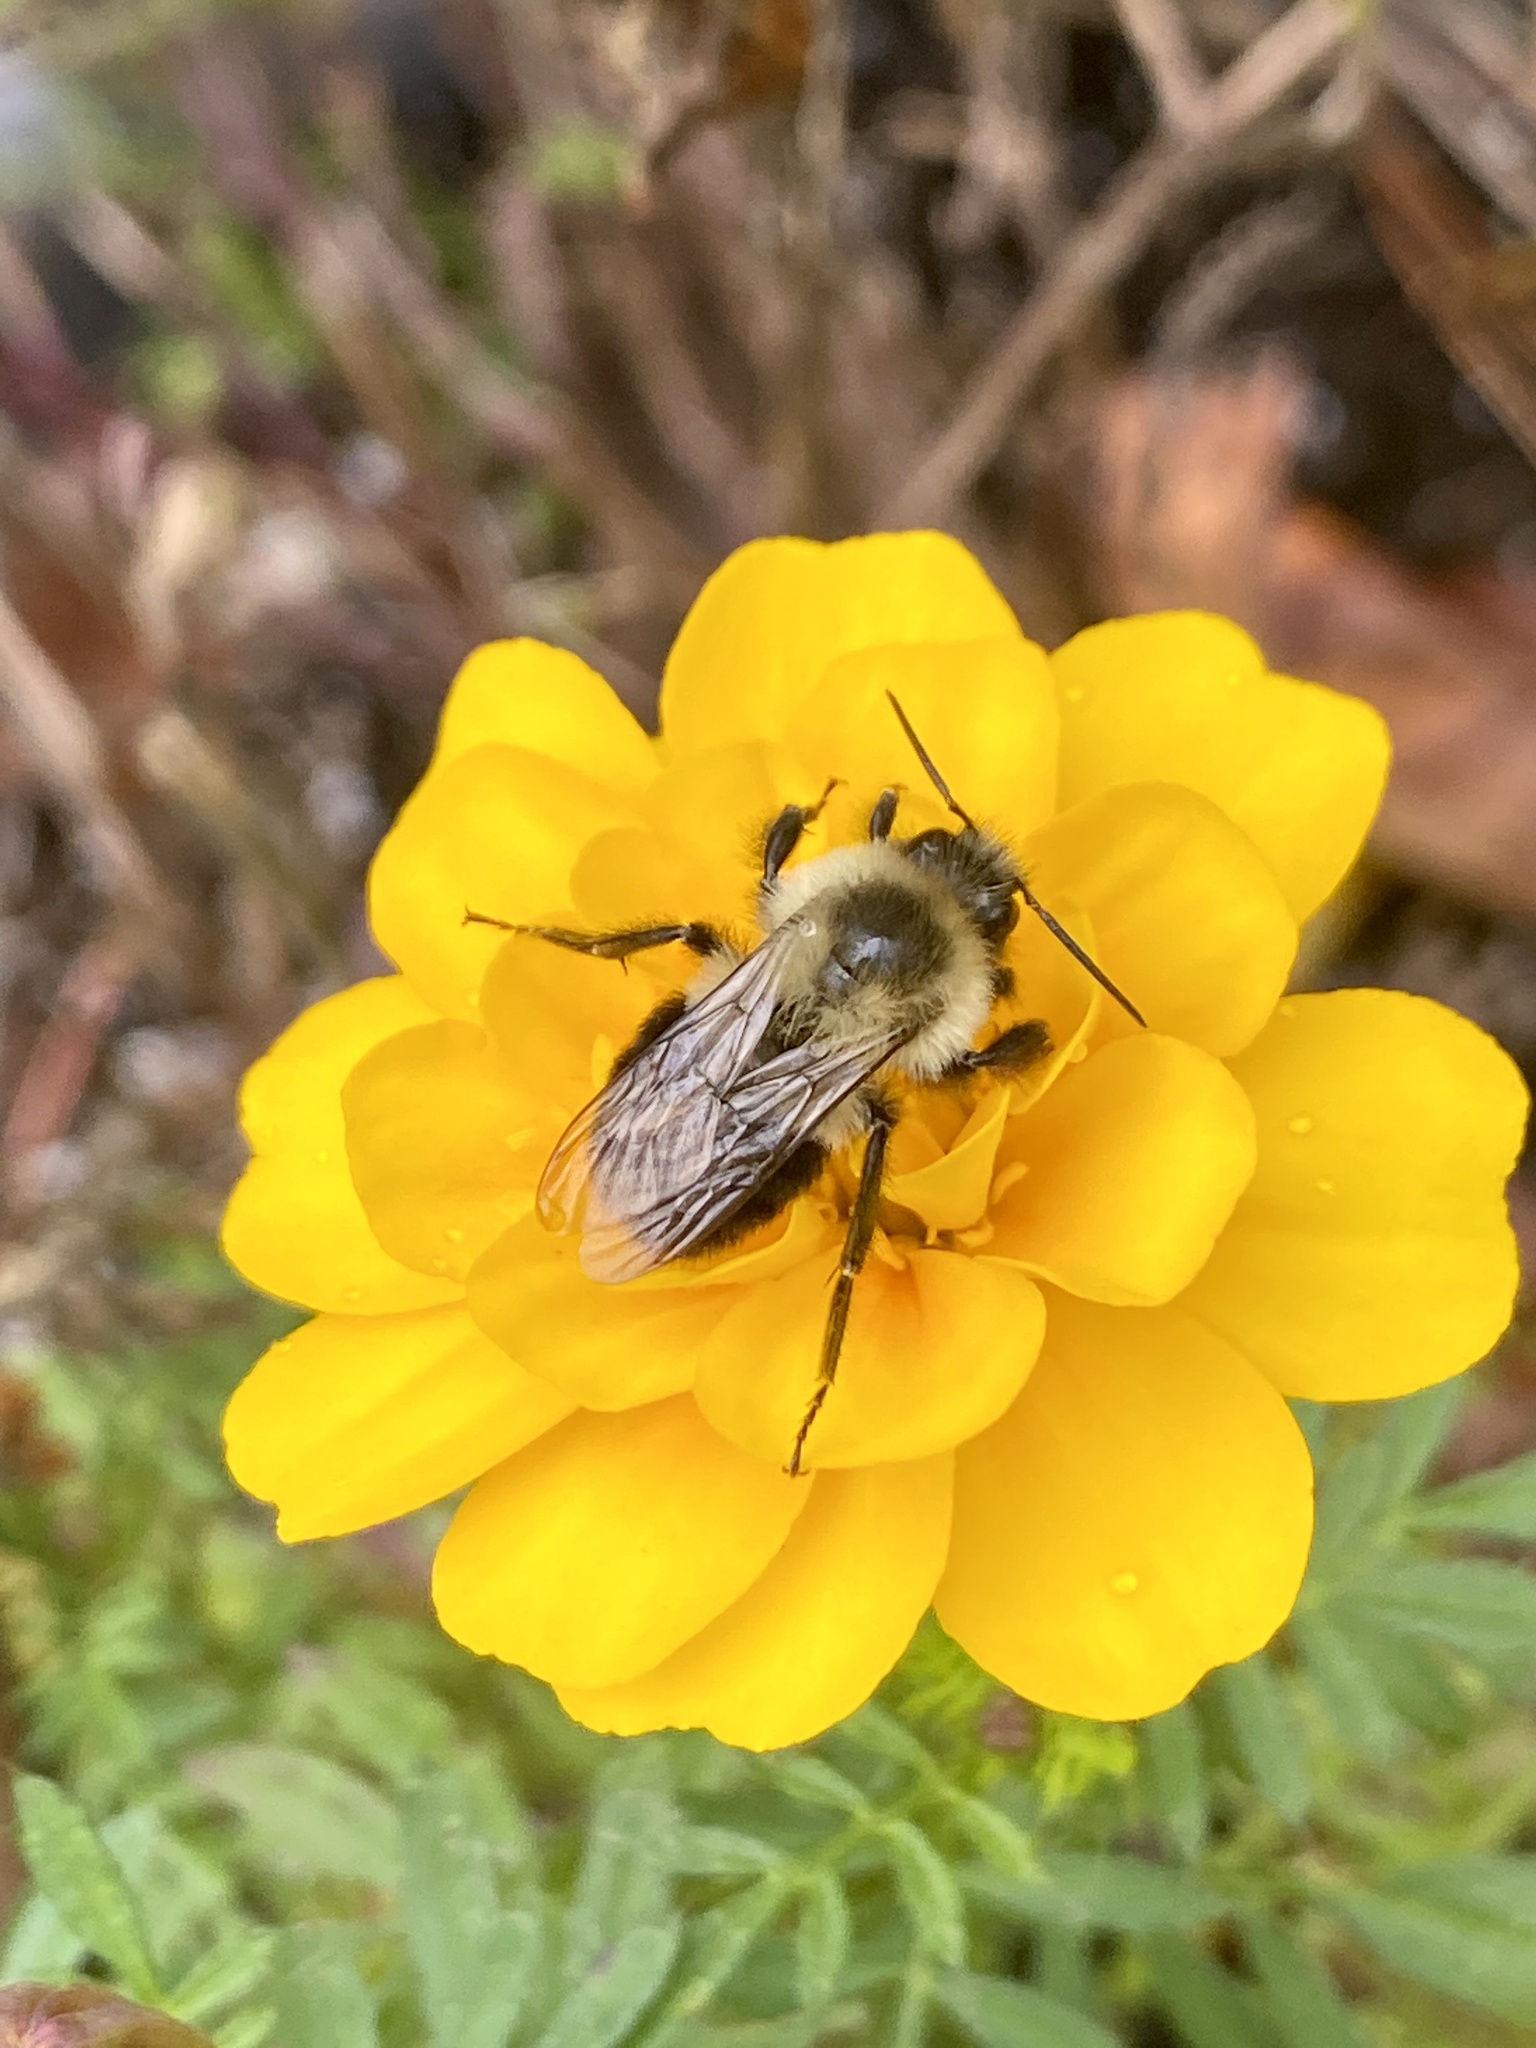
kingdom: Animalia
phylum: Arthropoda
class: Insecta
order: Hymenoptera
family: Apidae
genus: Bombus
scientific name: Bombus impatiens
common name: Common eastern bumble bee
